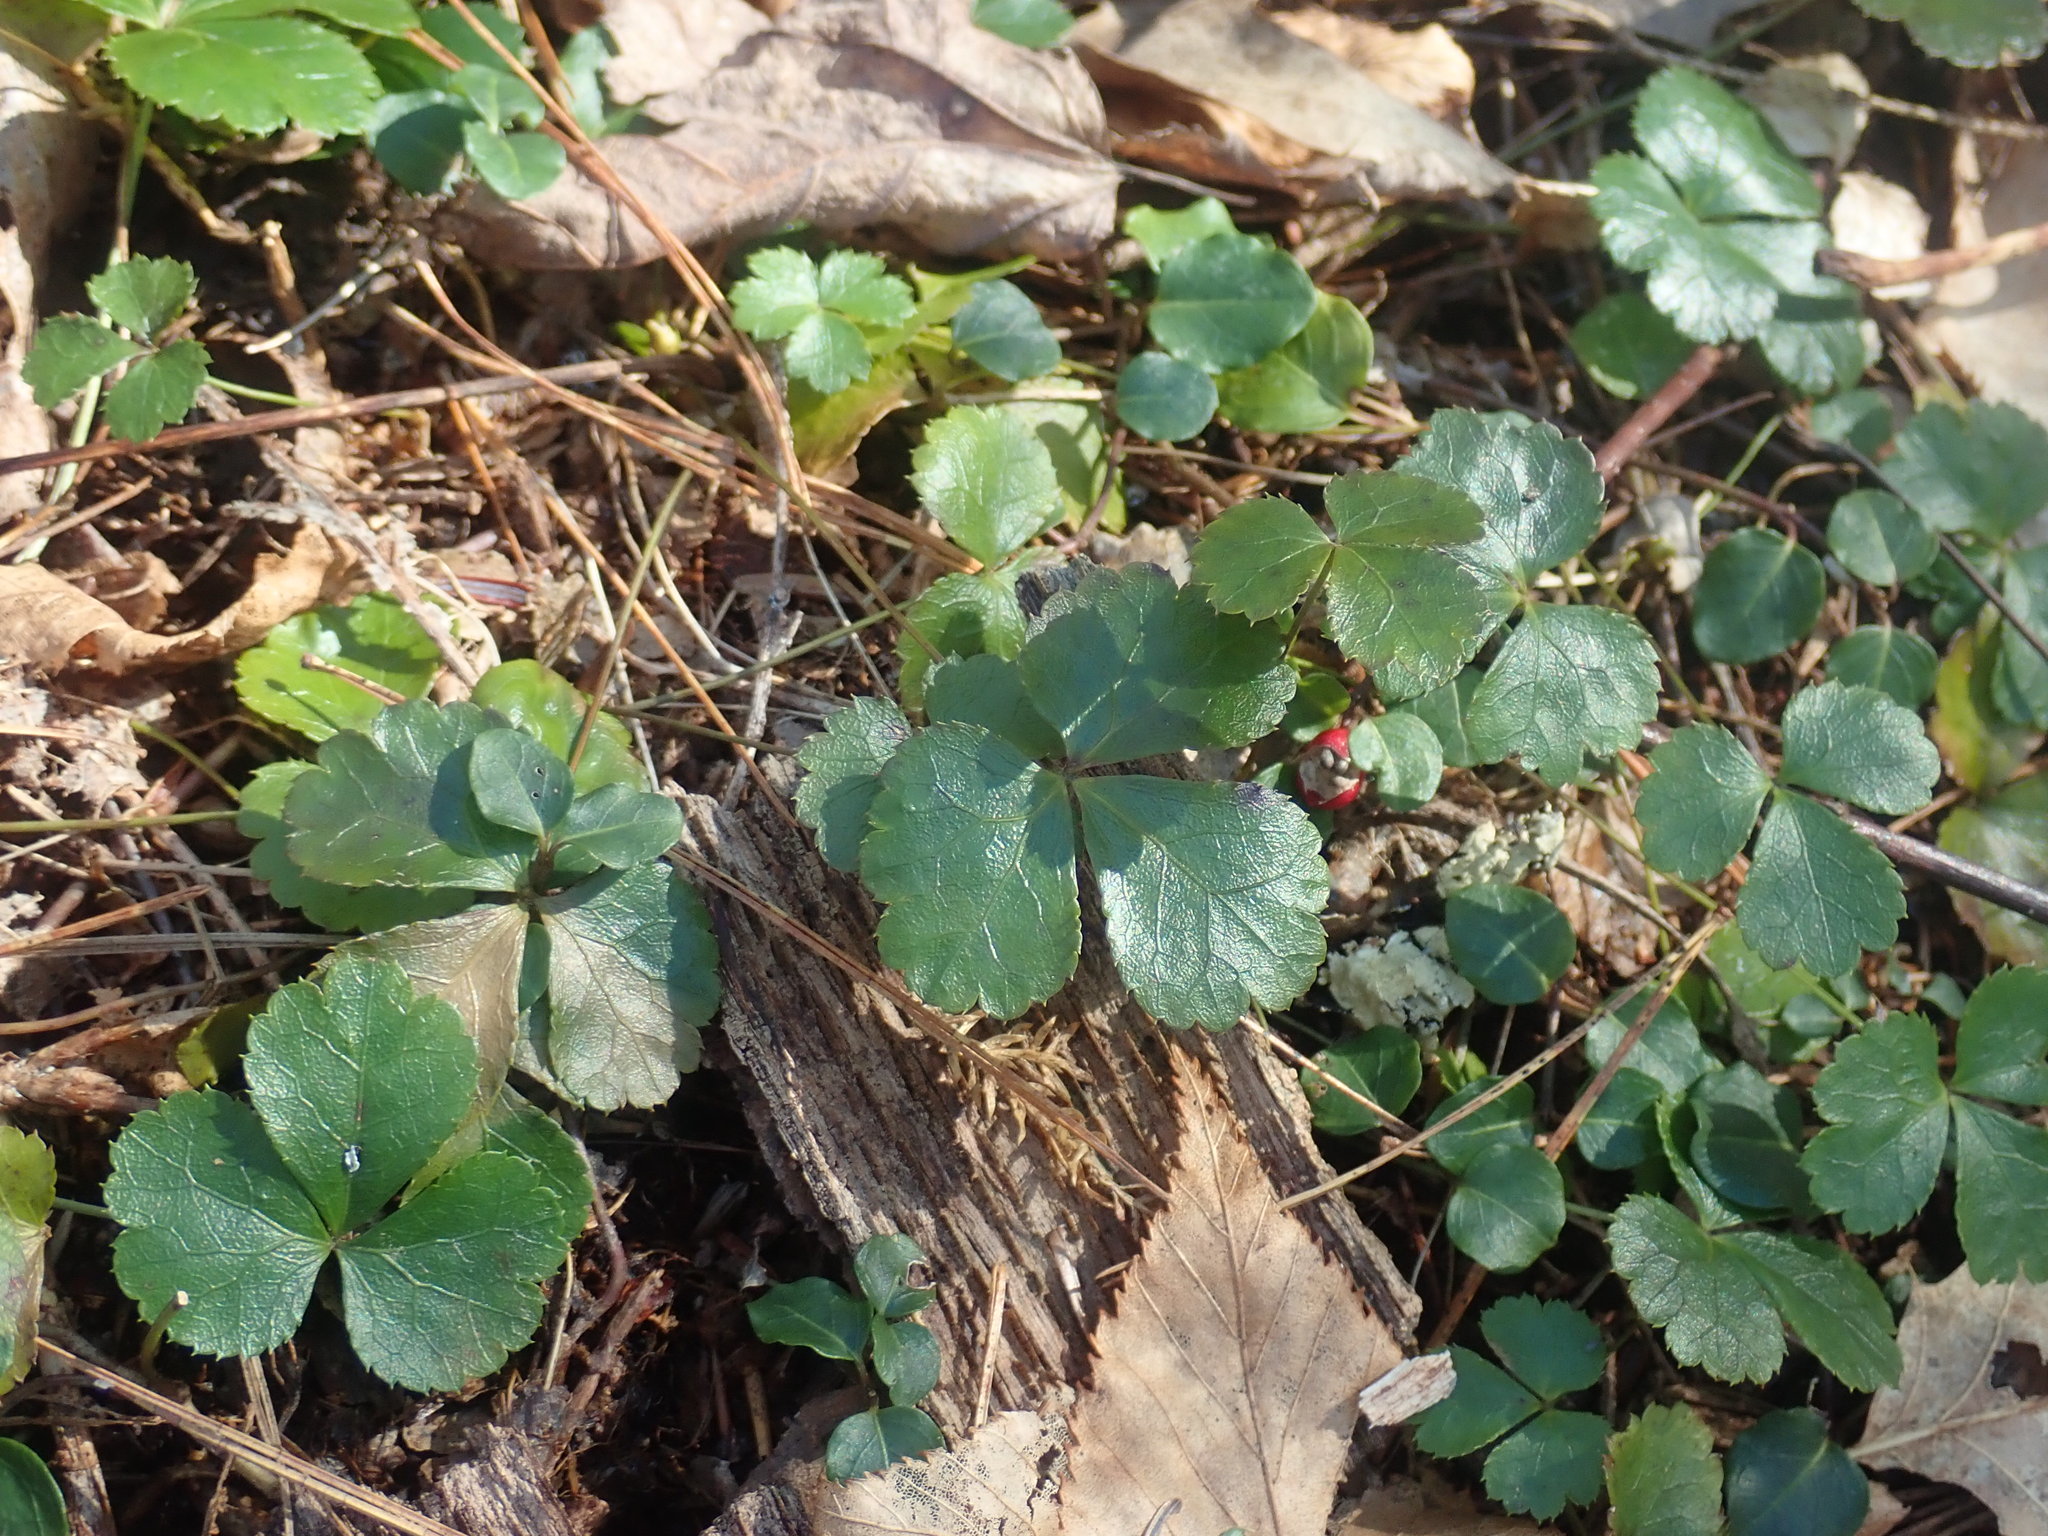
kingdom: Plantae
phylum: Tracheophyta
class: Magnoliopsida
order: Ranunculales
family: Ranunculaceae
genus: Coptis
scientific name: Coptis trifolia
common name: Canker-root
